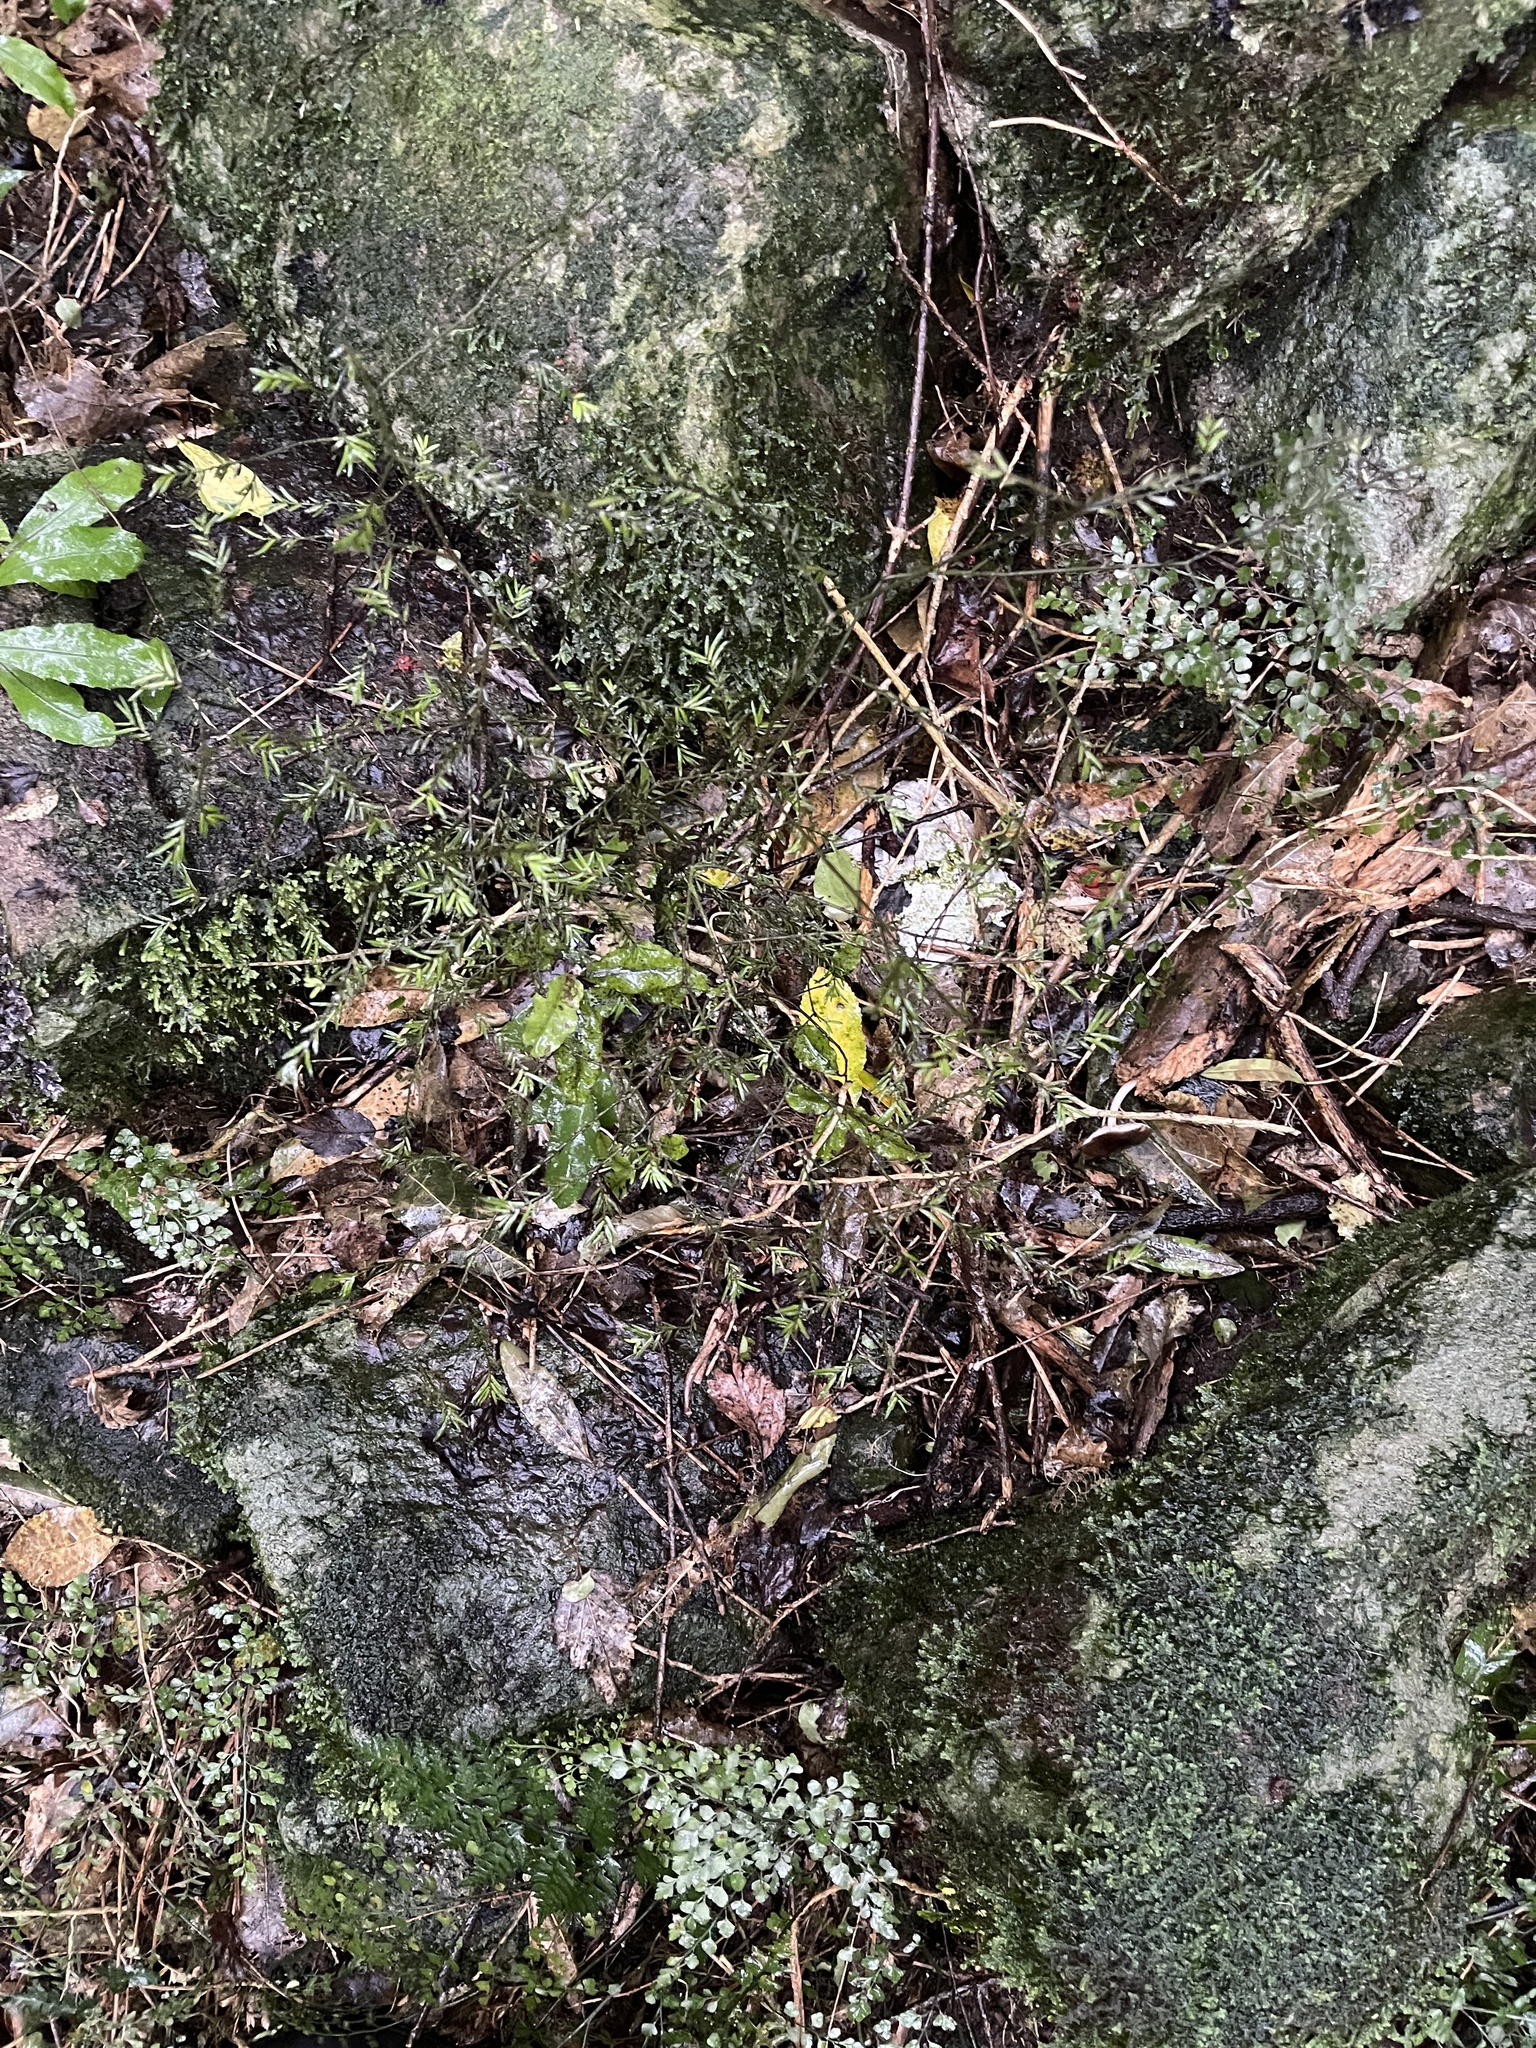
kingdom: Plantae
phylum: Tracheophyta
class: Pinopsida
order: Pinales
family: Podocarpaceae
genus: Prumnopitys
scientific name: Prumnopitys taxifolia
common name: Matai
